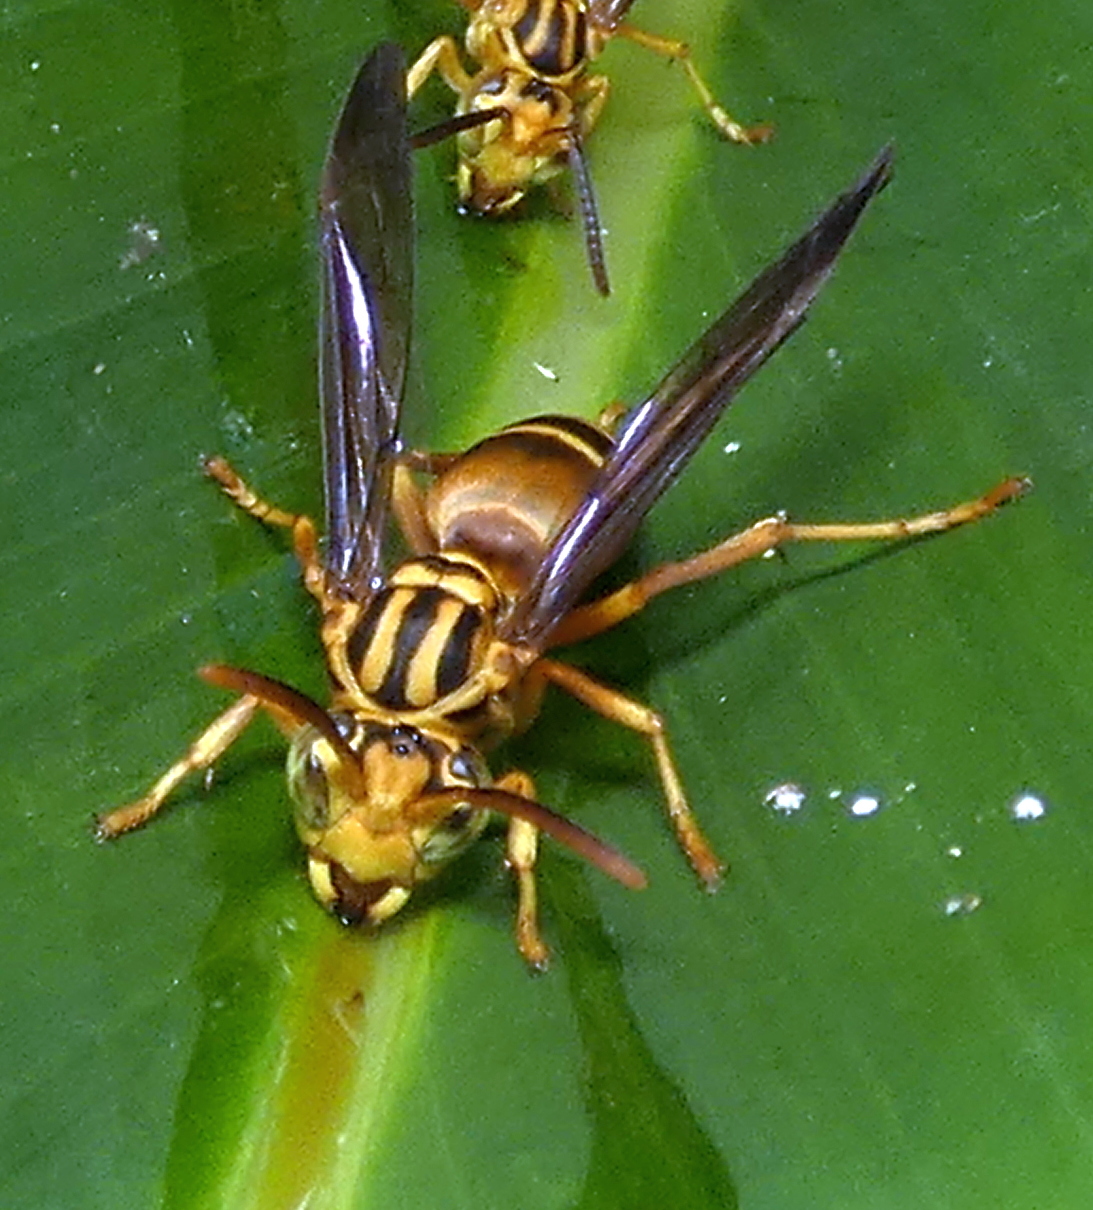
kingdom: Animalia
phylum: Arthropoda
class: Insecta
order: Hymenoptera
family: Vespidae
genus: Parachartergus
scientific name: Parachartergus vespiceps
